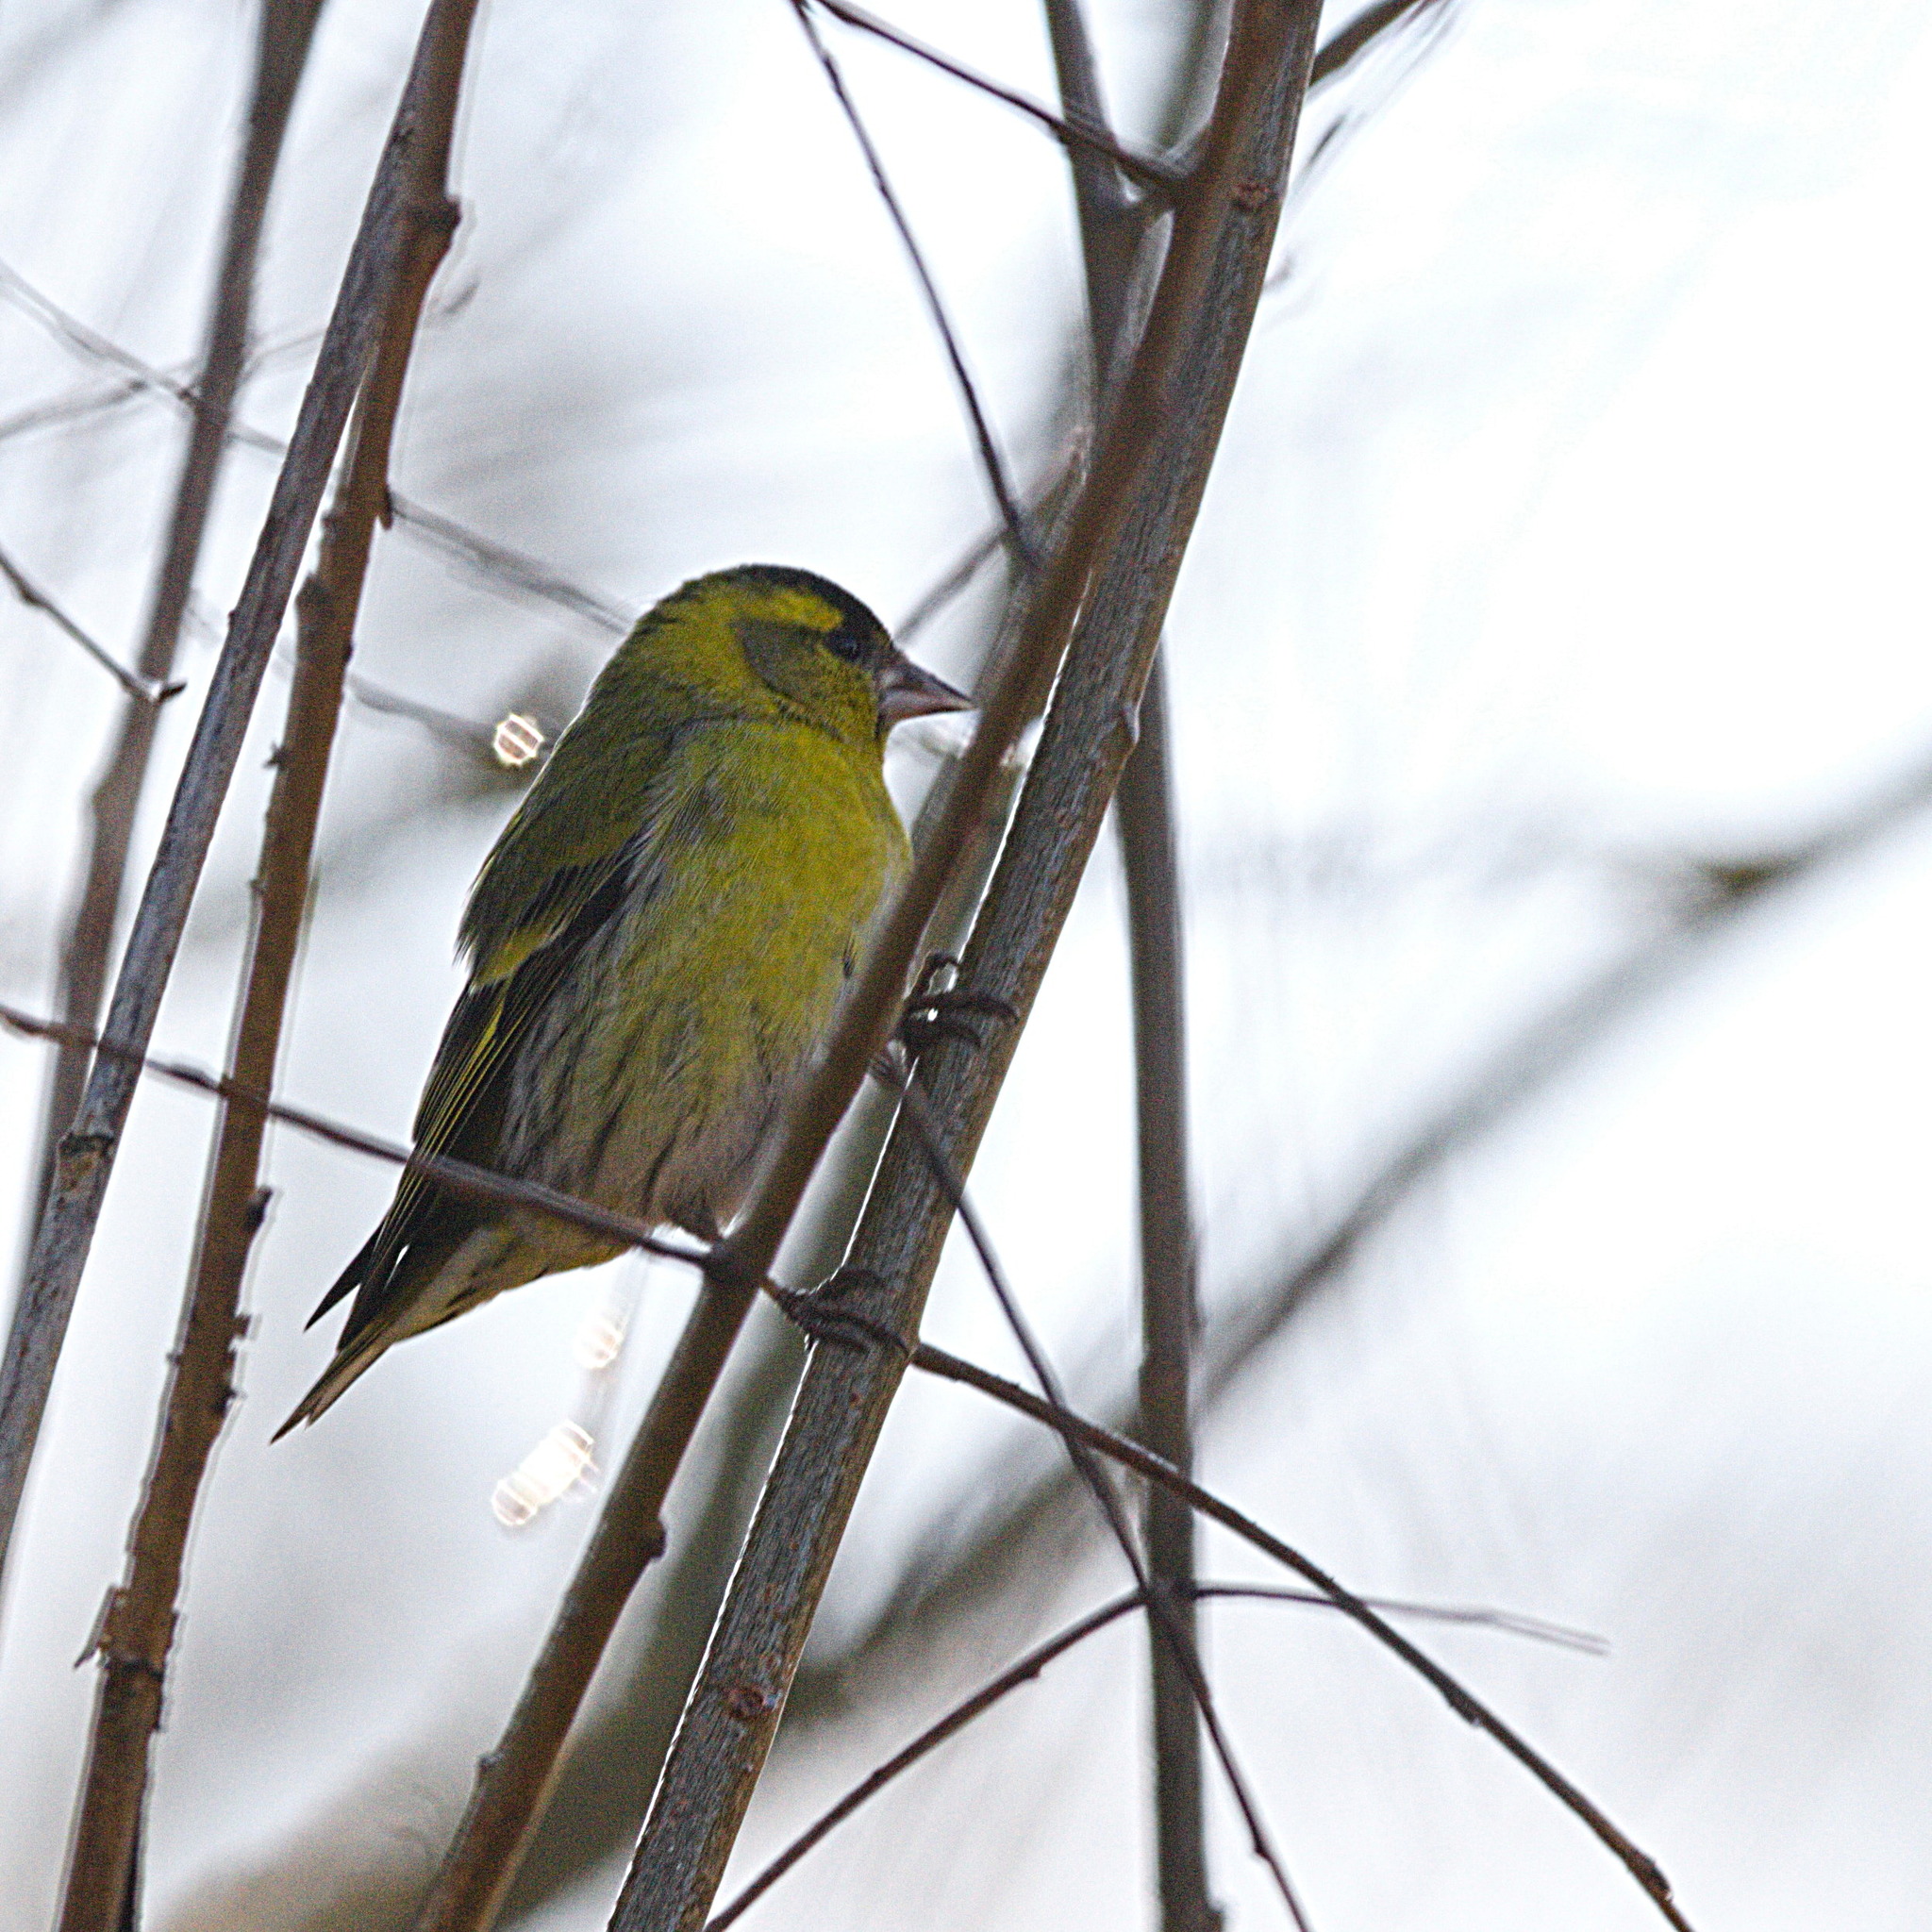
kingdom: Animalia
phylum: Chordata
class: Aves
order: Passeriformes
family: Fringillidae
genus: Spinus
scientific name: Spinus spinus
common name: Eurasian siskin
